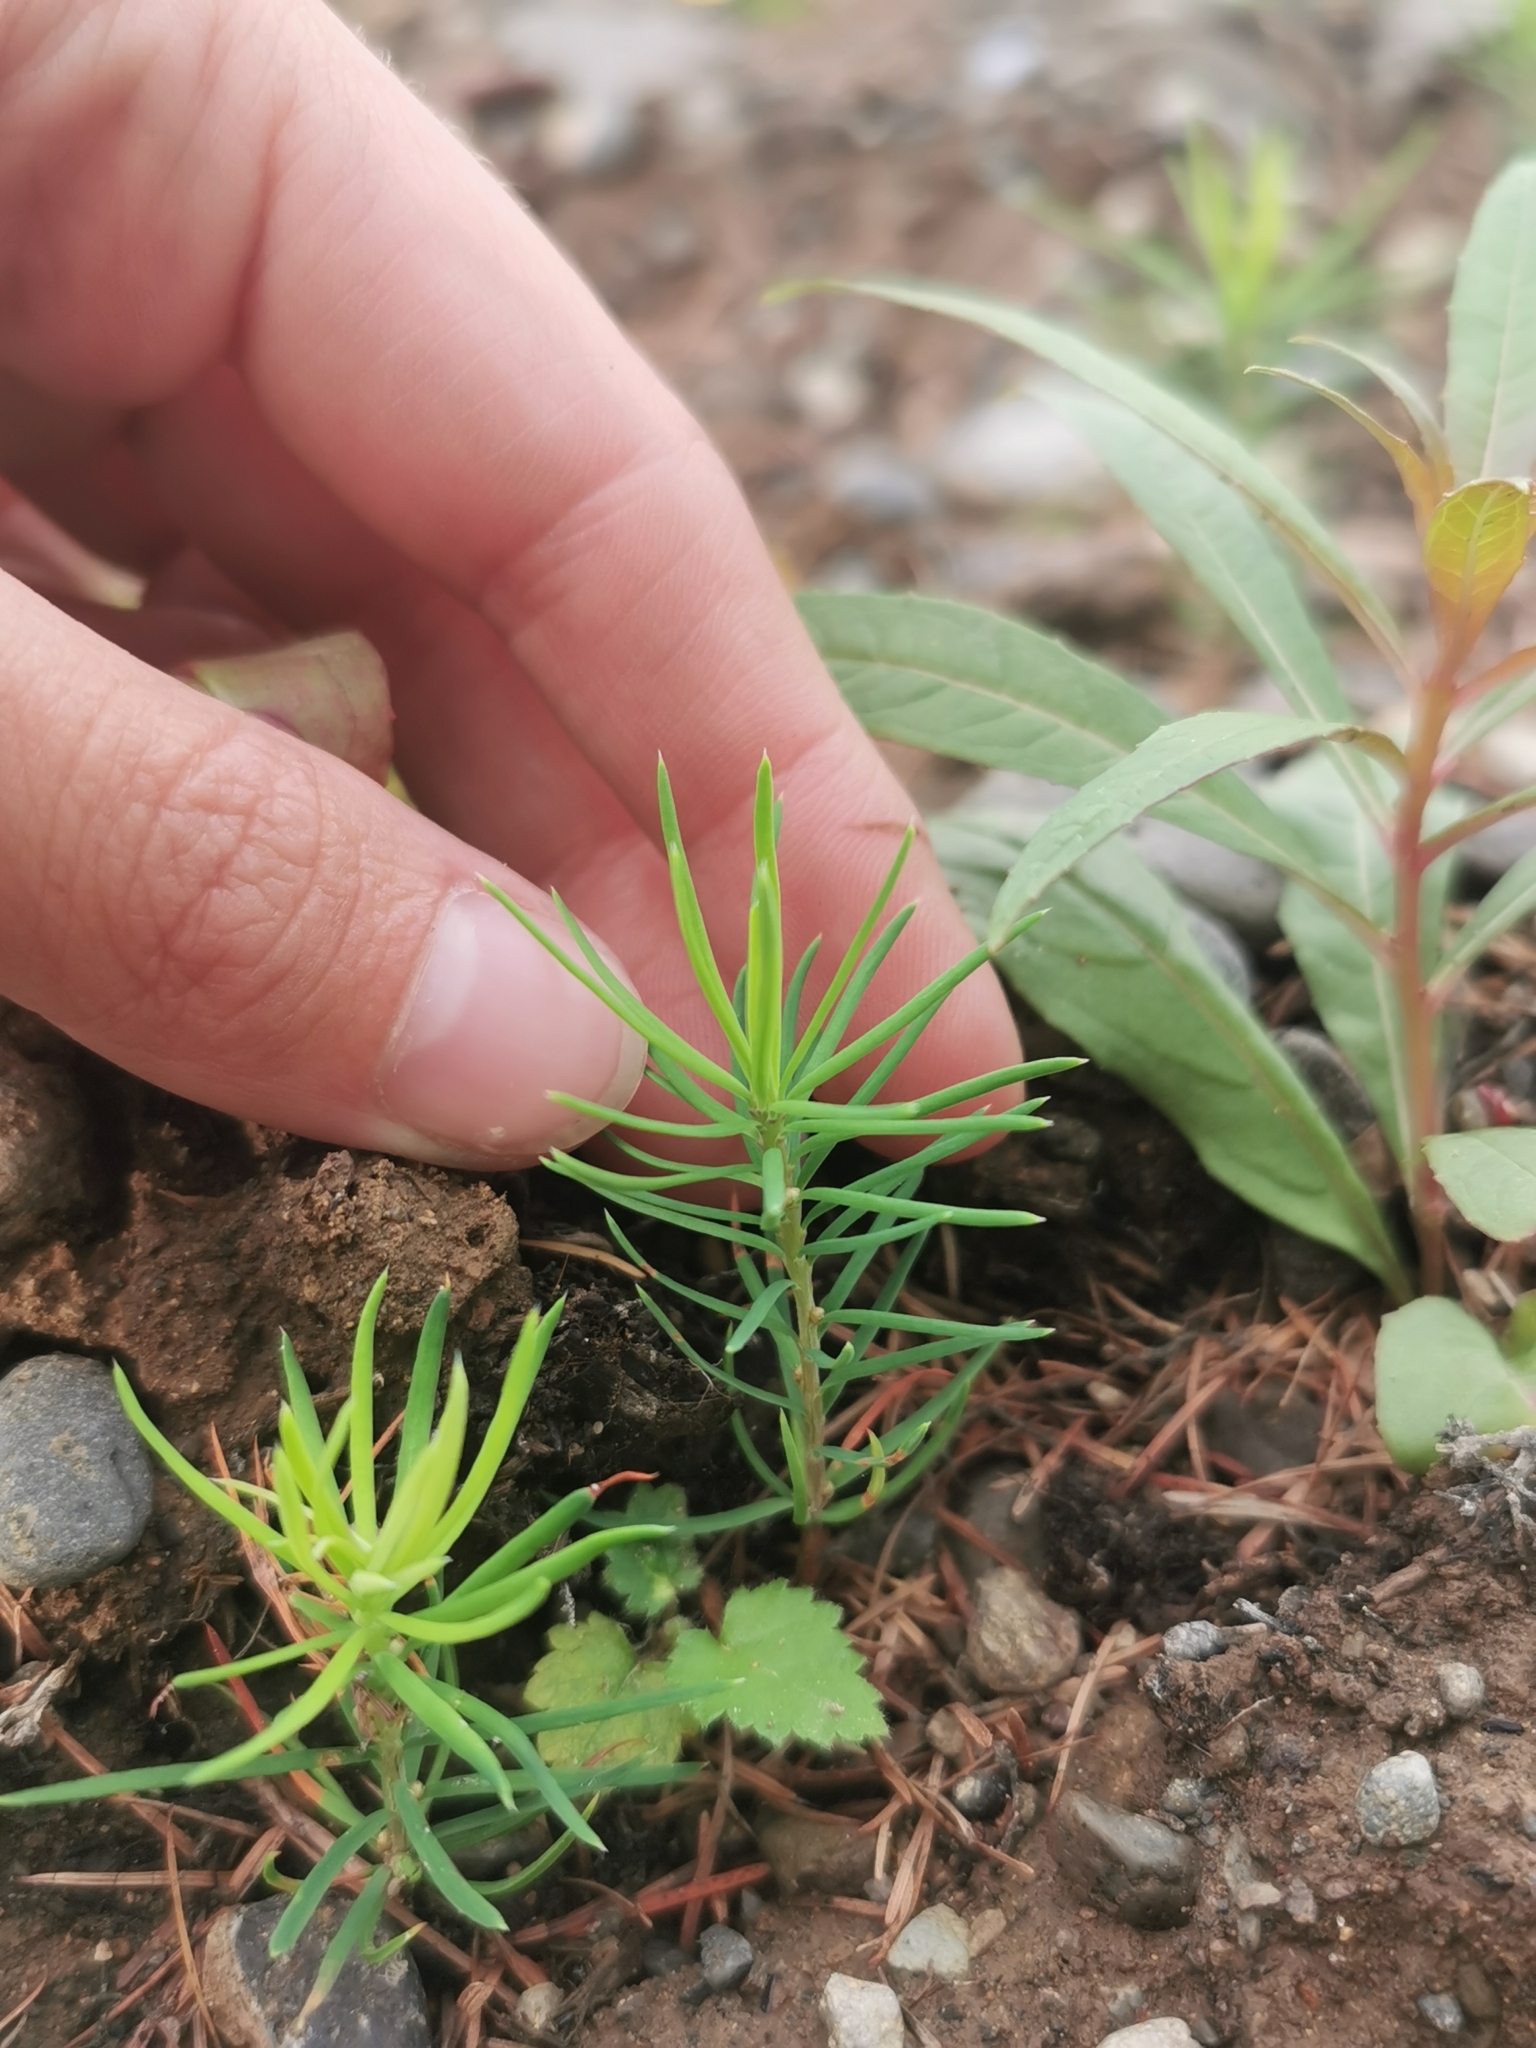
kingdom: Plantae
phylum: Tracheophyta
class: Pinopsida
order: Pinales
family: Pinaceae
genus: Larix
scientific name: Larix gmelinii
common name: Dahurian larch
